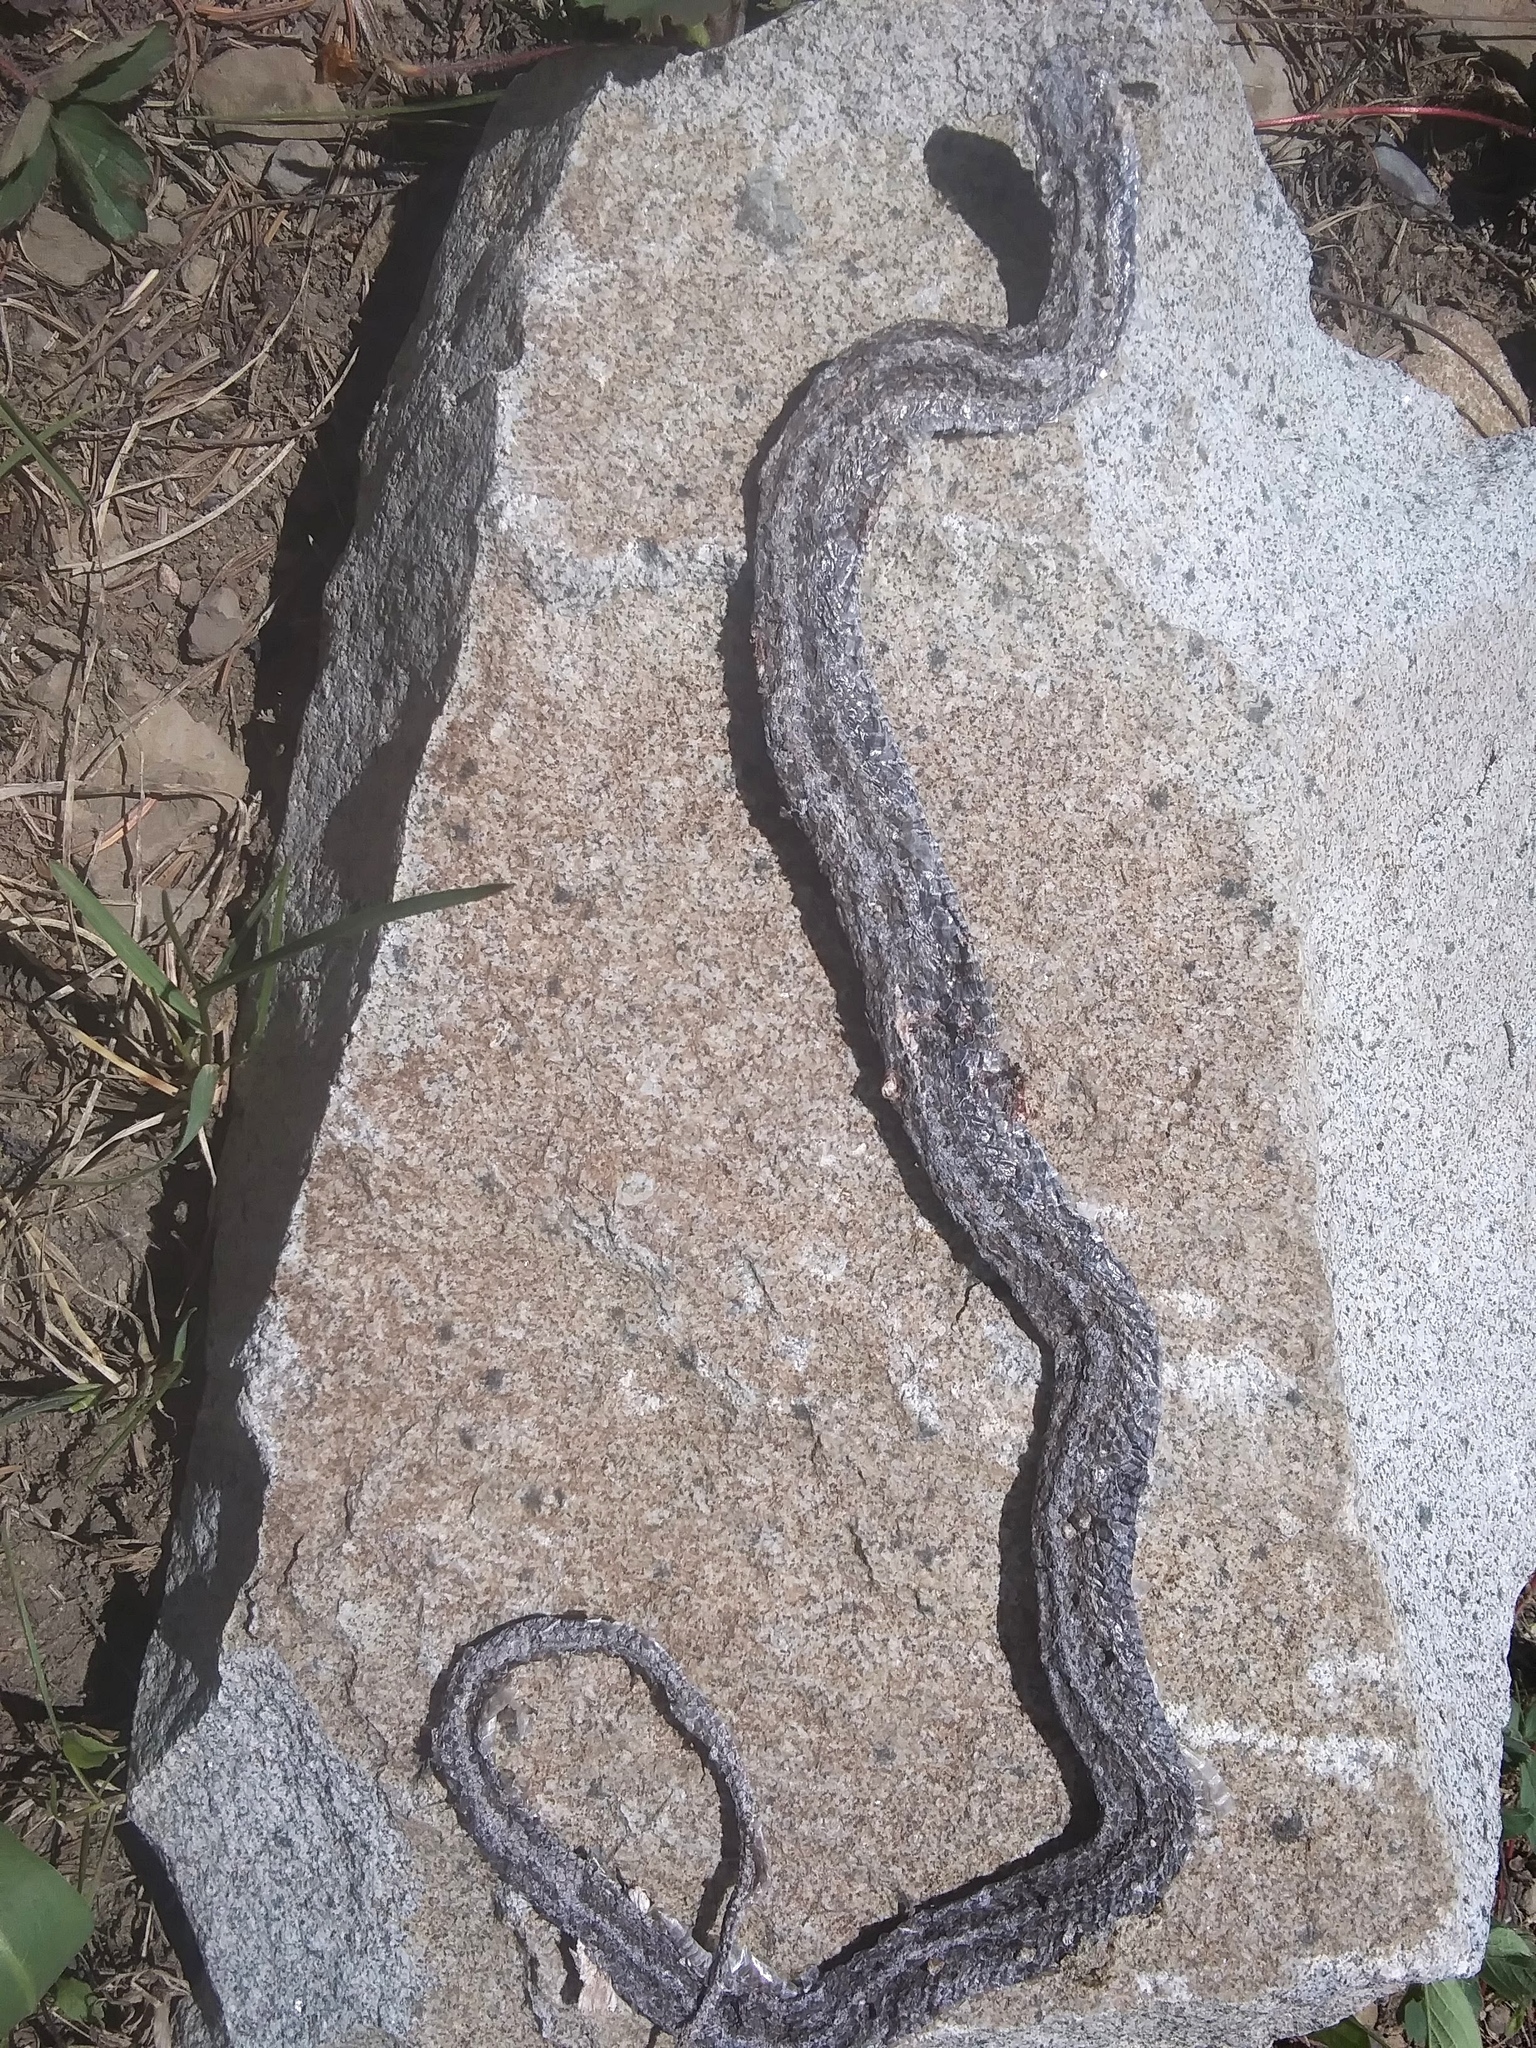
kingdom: Animalia
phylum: Chordata
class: Squamata
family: Colubridae
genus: Thamnophis
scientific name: Thamnophis elegans
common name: Western terrestrial garter snake
